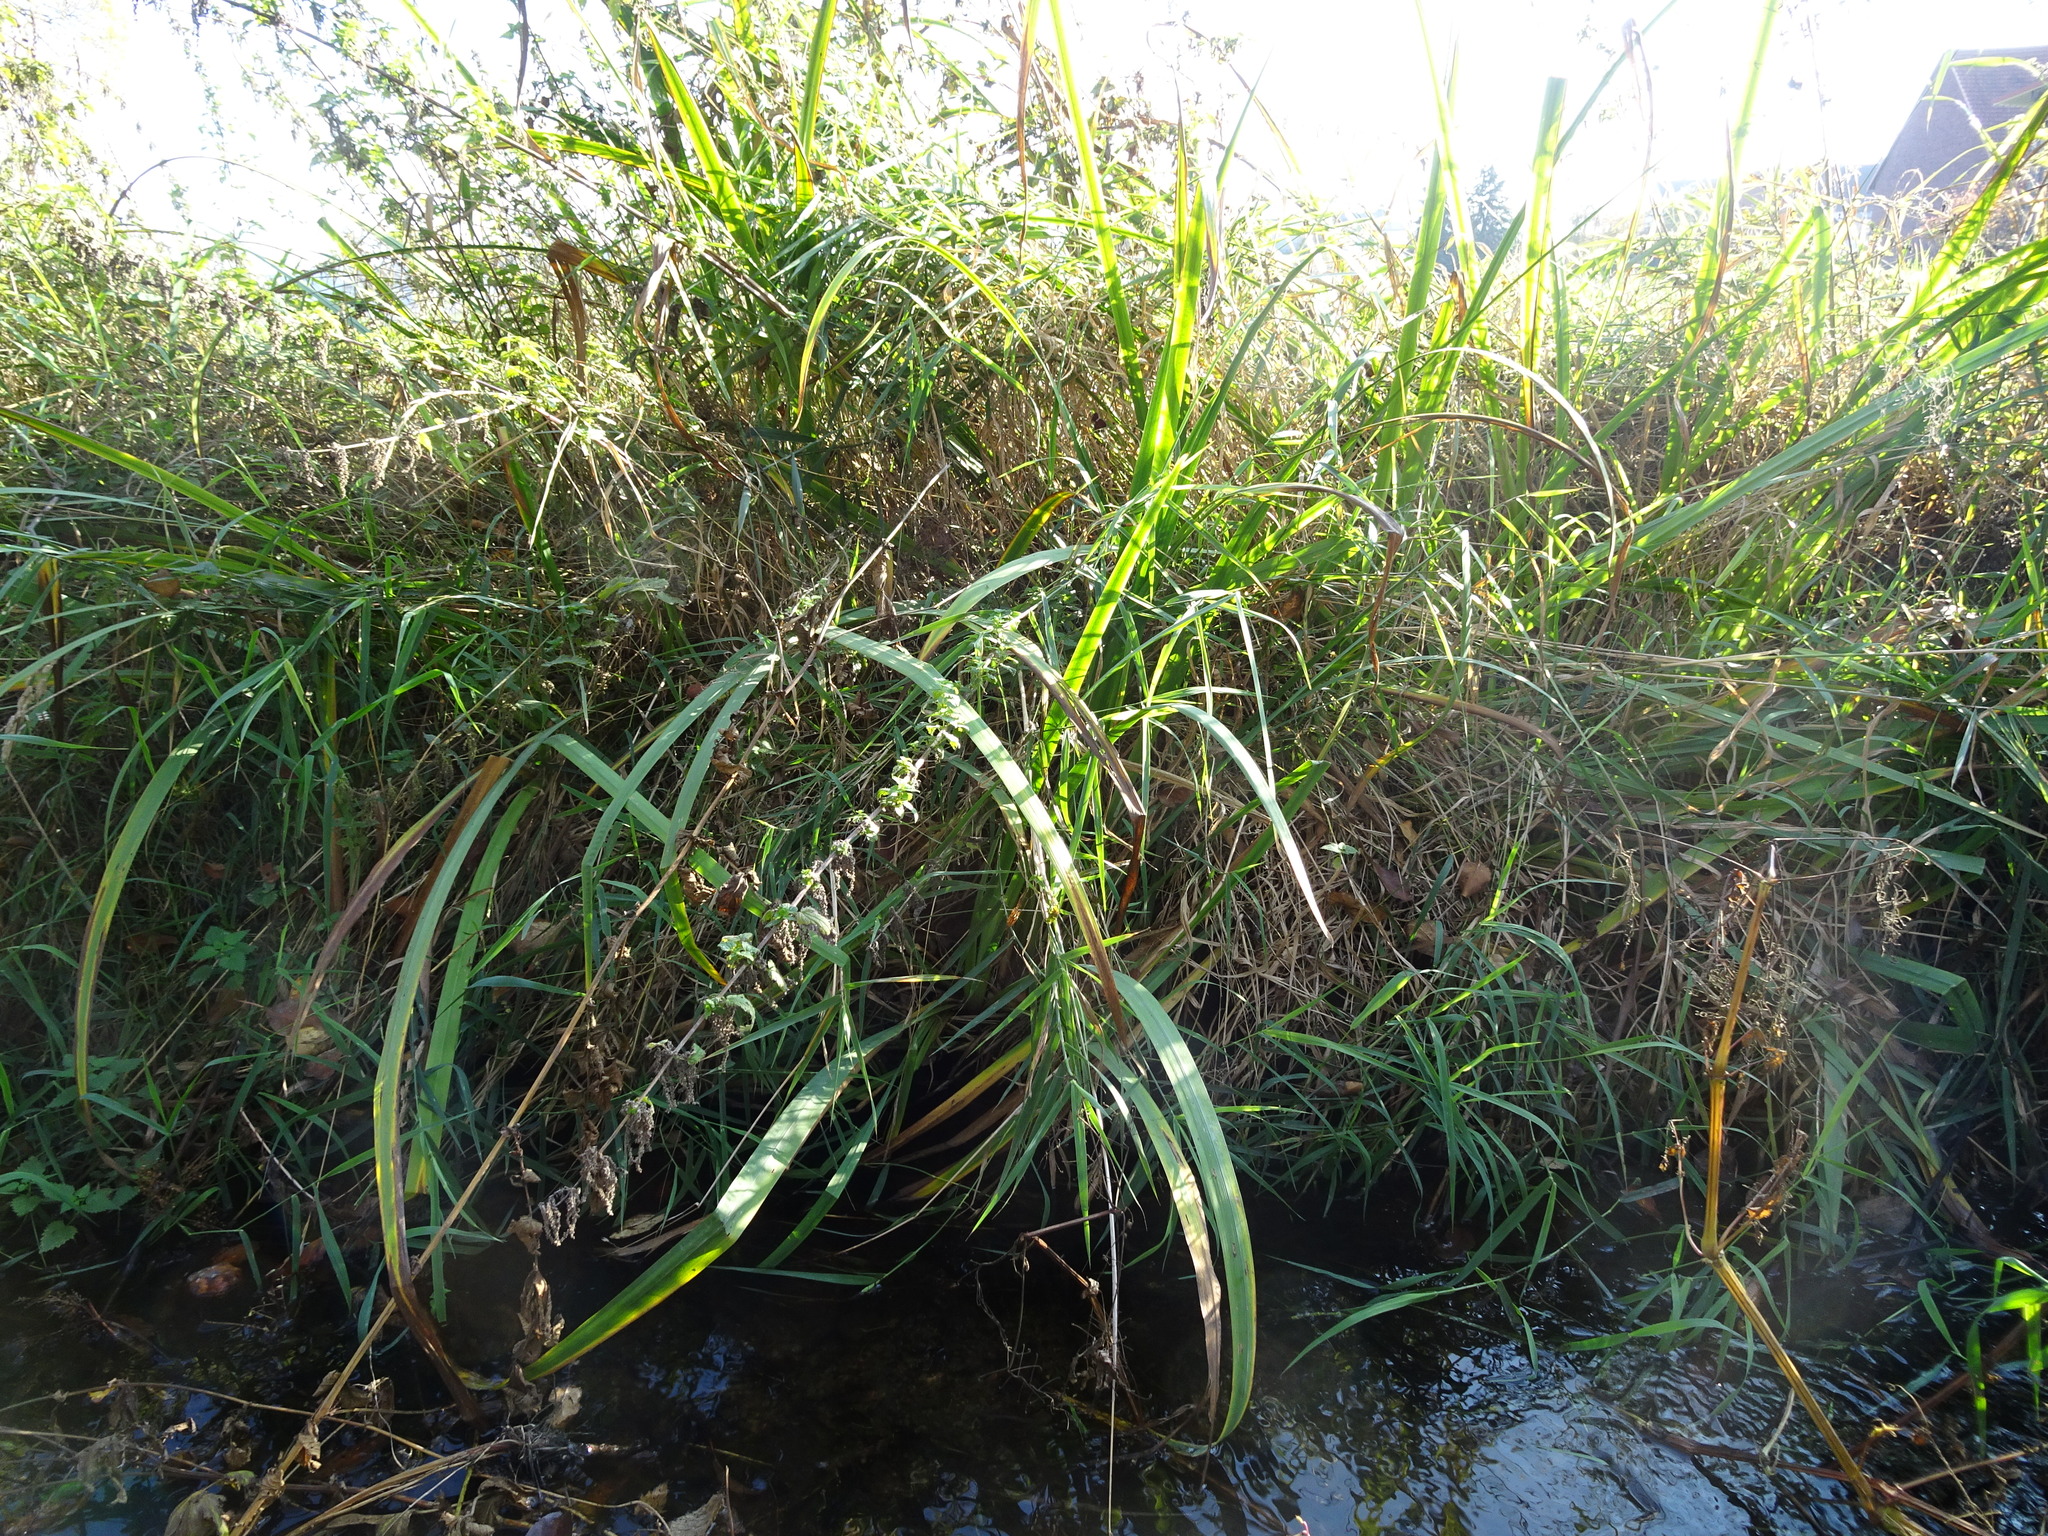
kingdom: Plantae
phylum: Tracheophyta
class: Liliopsida
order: Asparagales
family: Iridaceae
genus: Iris
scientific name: Iris pseudacorus
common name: Yellow flag
